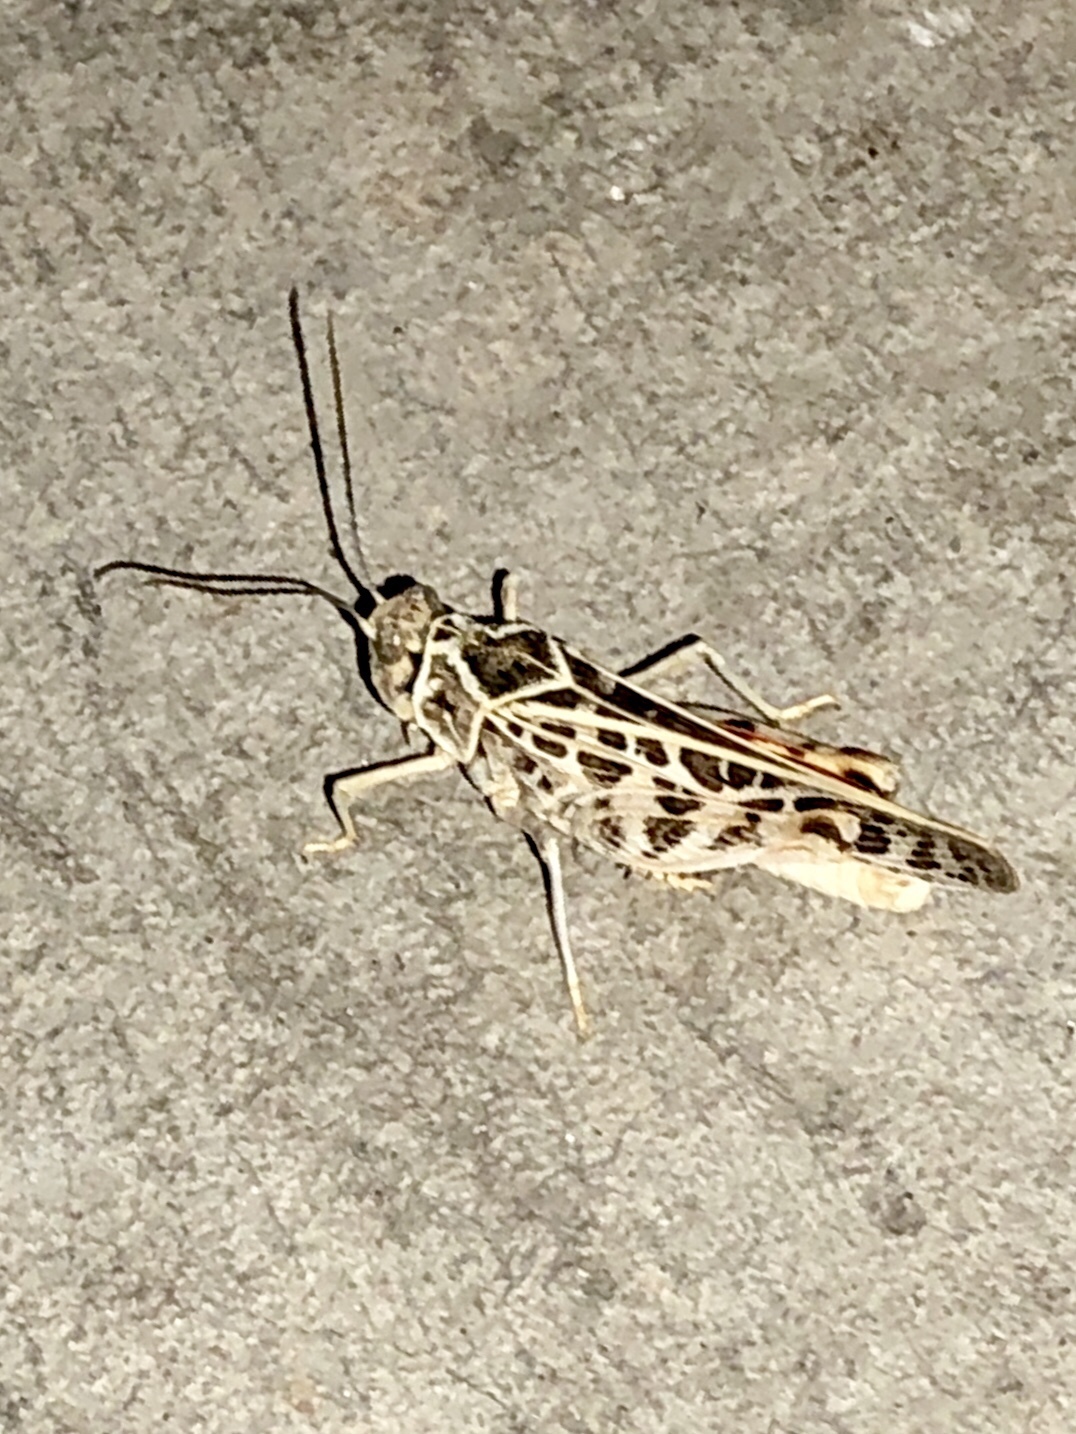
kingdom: Animalia
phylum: Arthropoda
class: Insecta
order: Orthoptera
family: Acrididae
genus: Xanthippus
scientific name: Xanthippus corallipes
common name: Redshanked grasshopper
